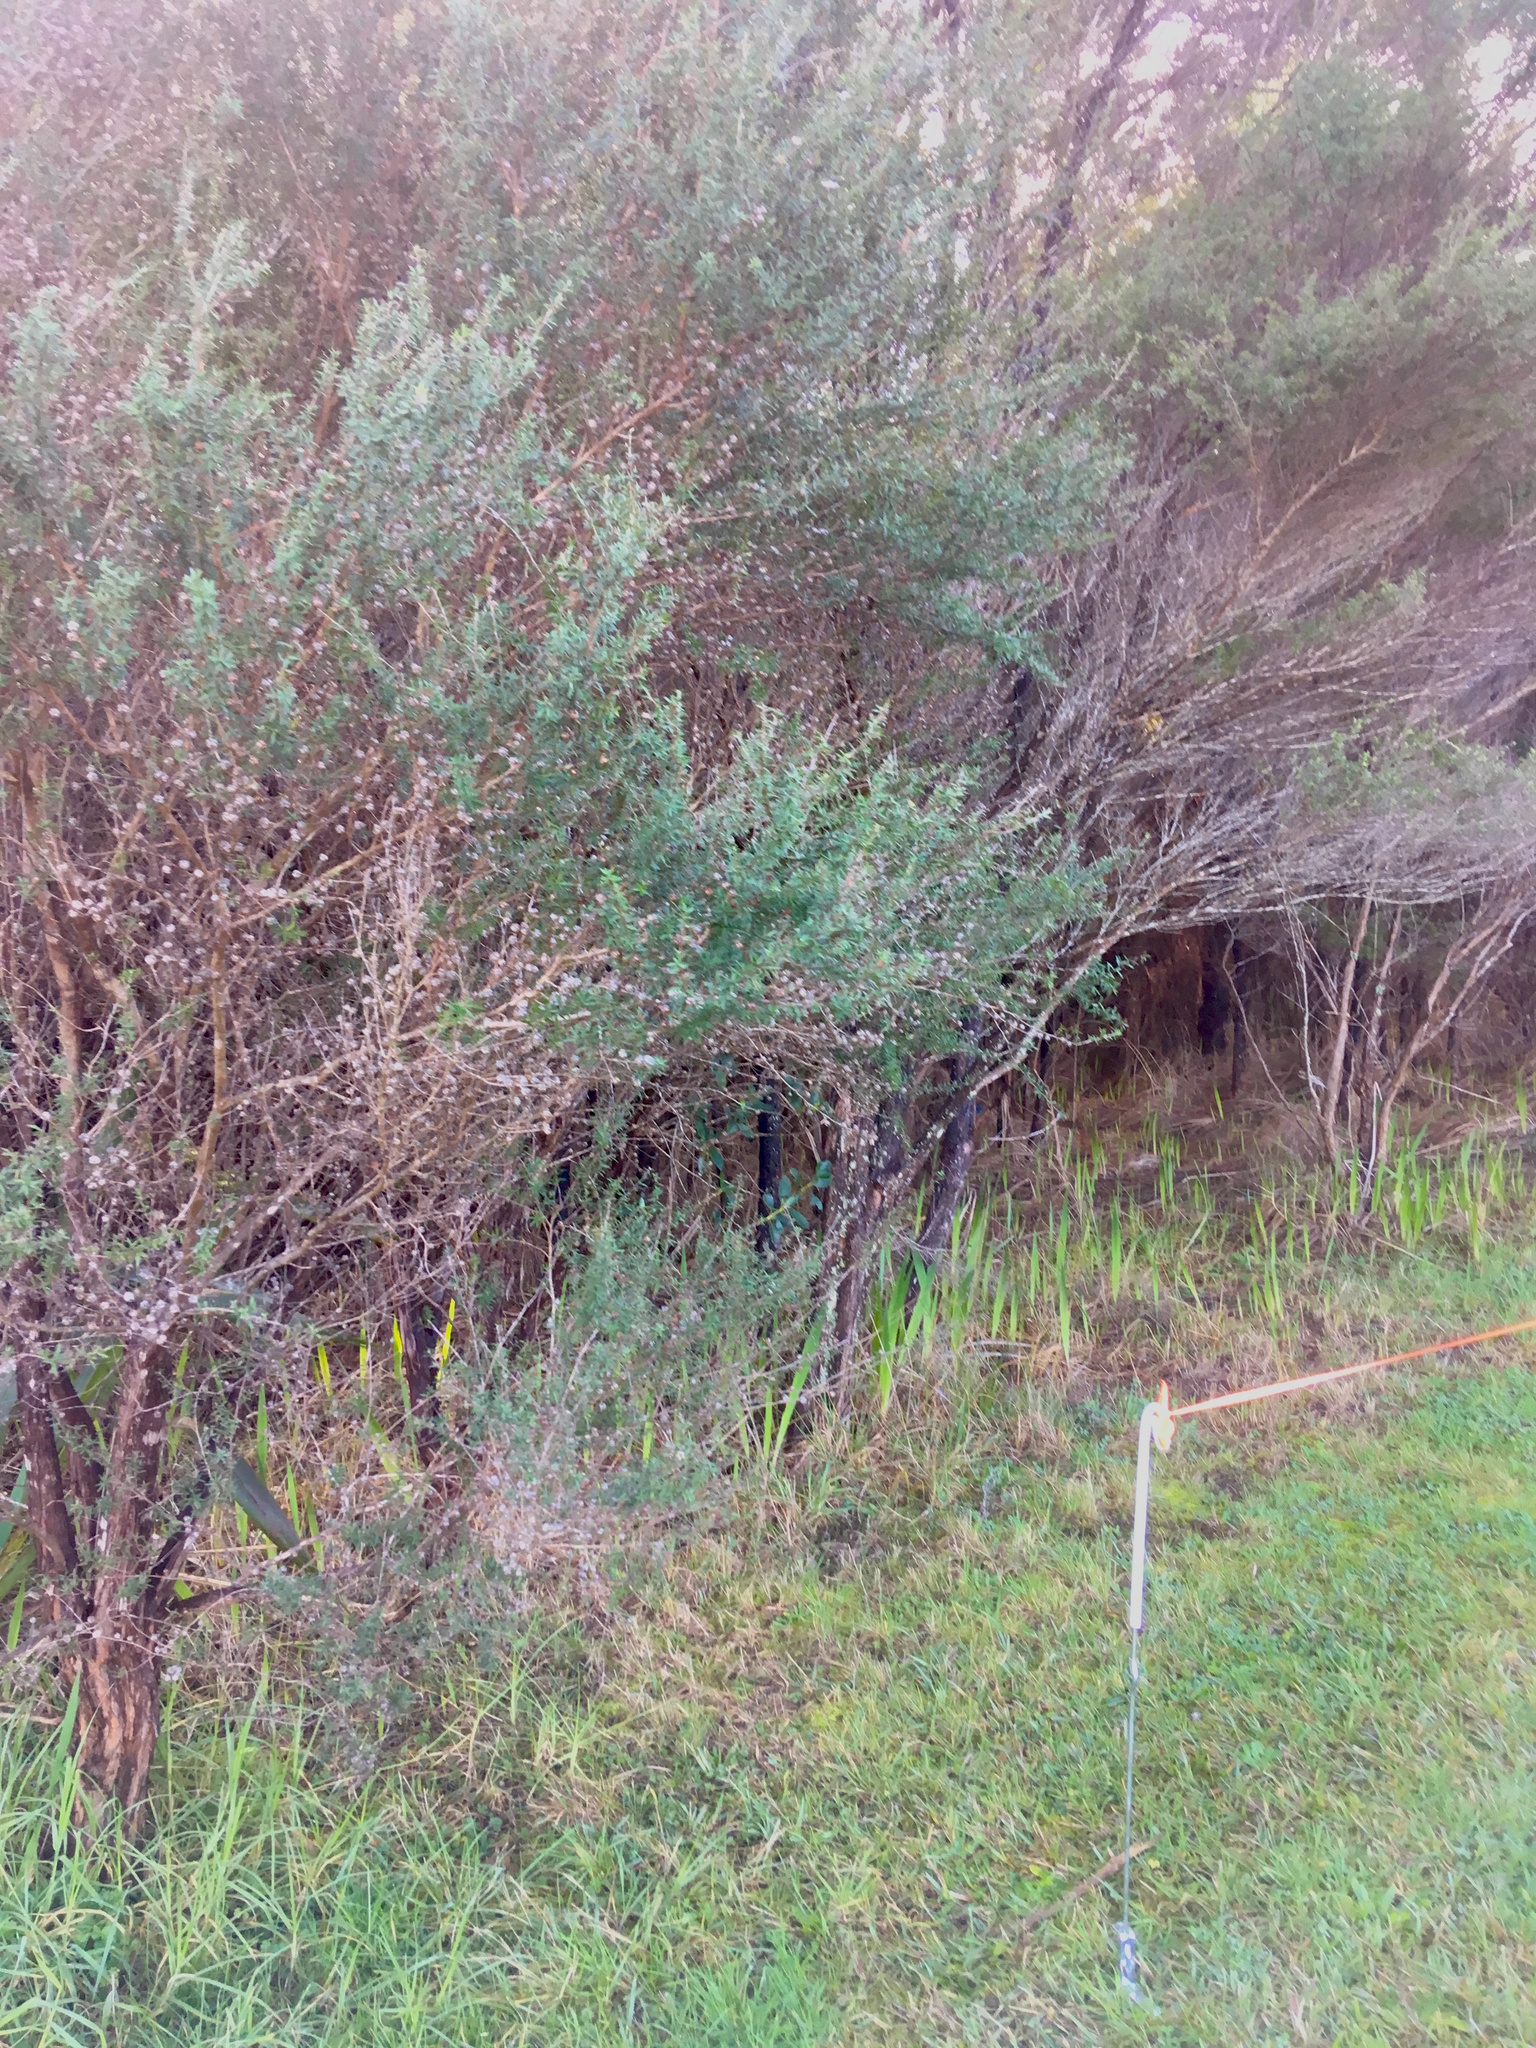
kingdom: Plantae
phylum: Tracheophyta
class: Liliopsida
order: Poales
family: Poaceae
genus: Cenchrus
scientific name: Cenchrus clandestinus
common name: Kikuyugrass
